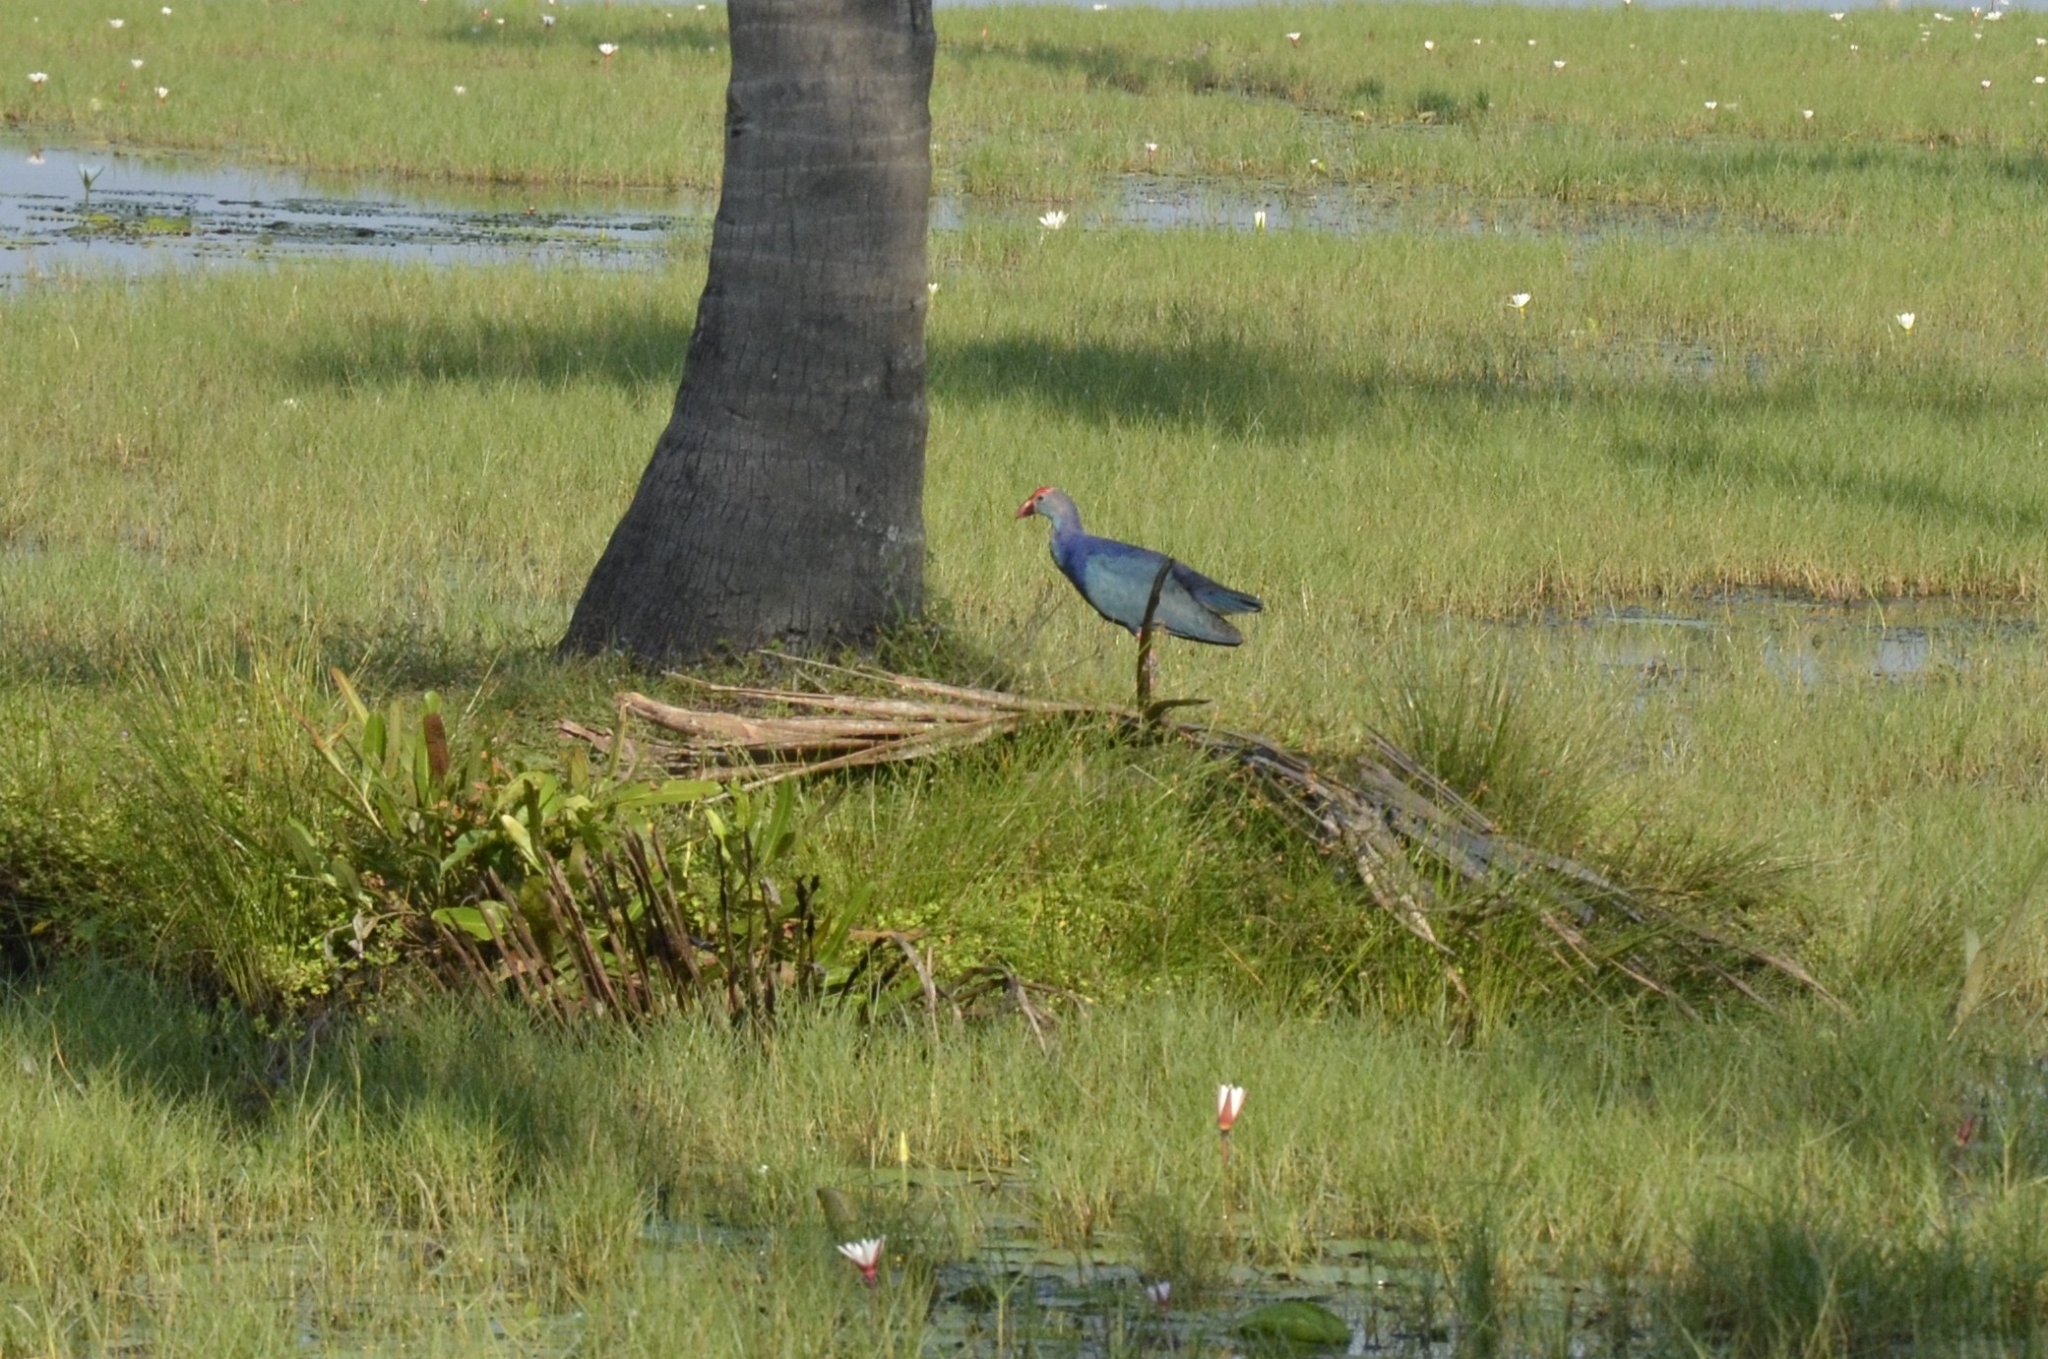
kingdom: Animalia
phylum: Chordata
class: Aves
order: Gruiformes
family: Rallidae
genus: Porphyrio
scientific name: Porphyrio porphyrio
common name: Purple swamphen
